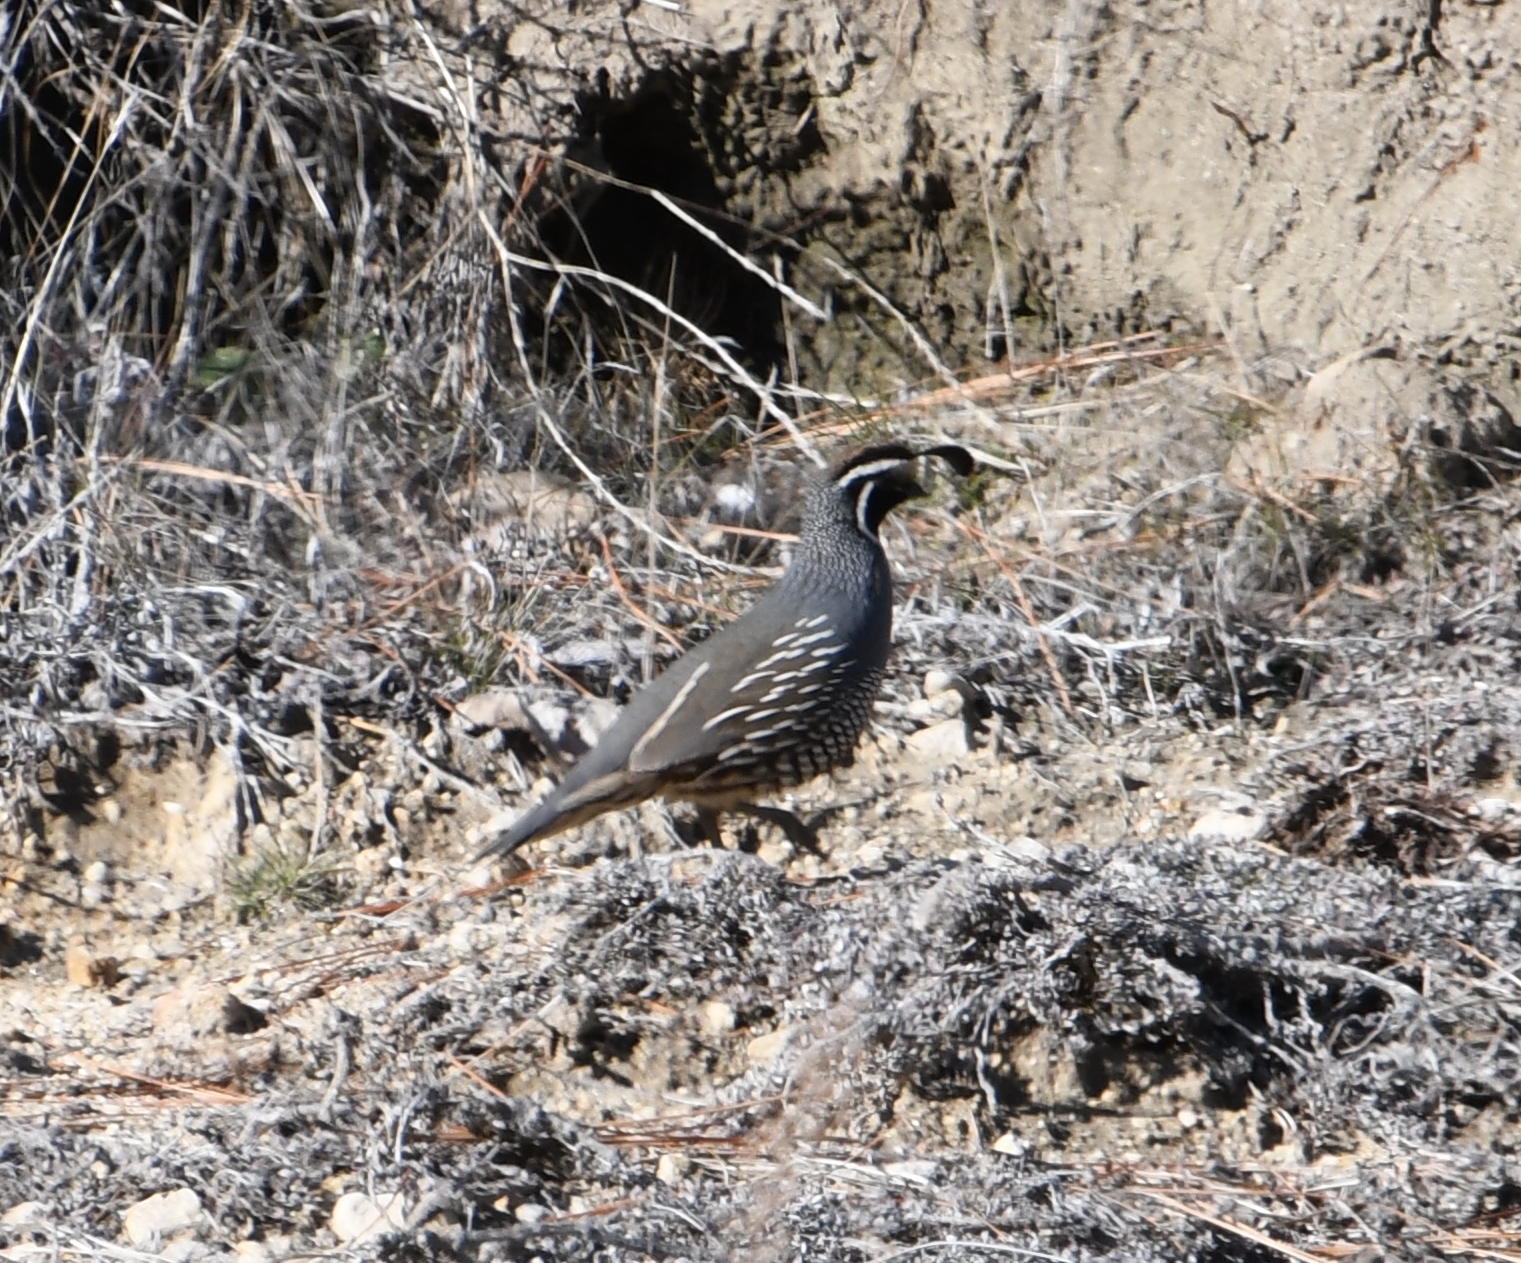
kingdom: Animalia
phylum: Chordata
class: Aves
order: Galliformes
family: Odontophoridae
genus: Callipepla
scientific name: Callipepla californica
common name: California quail
